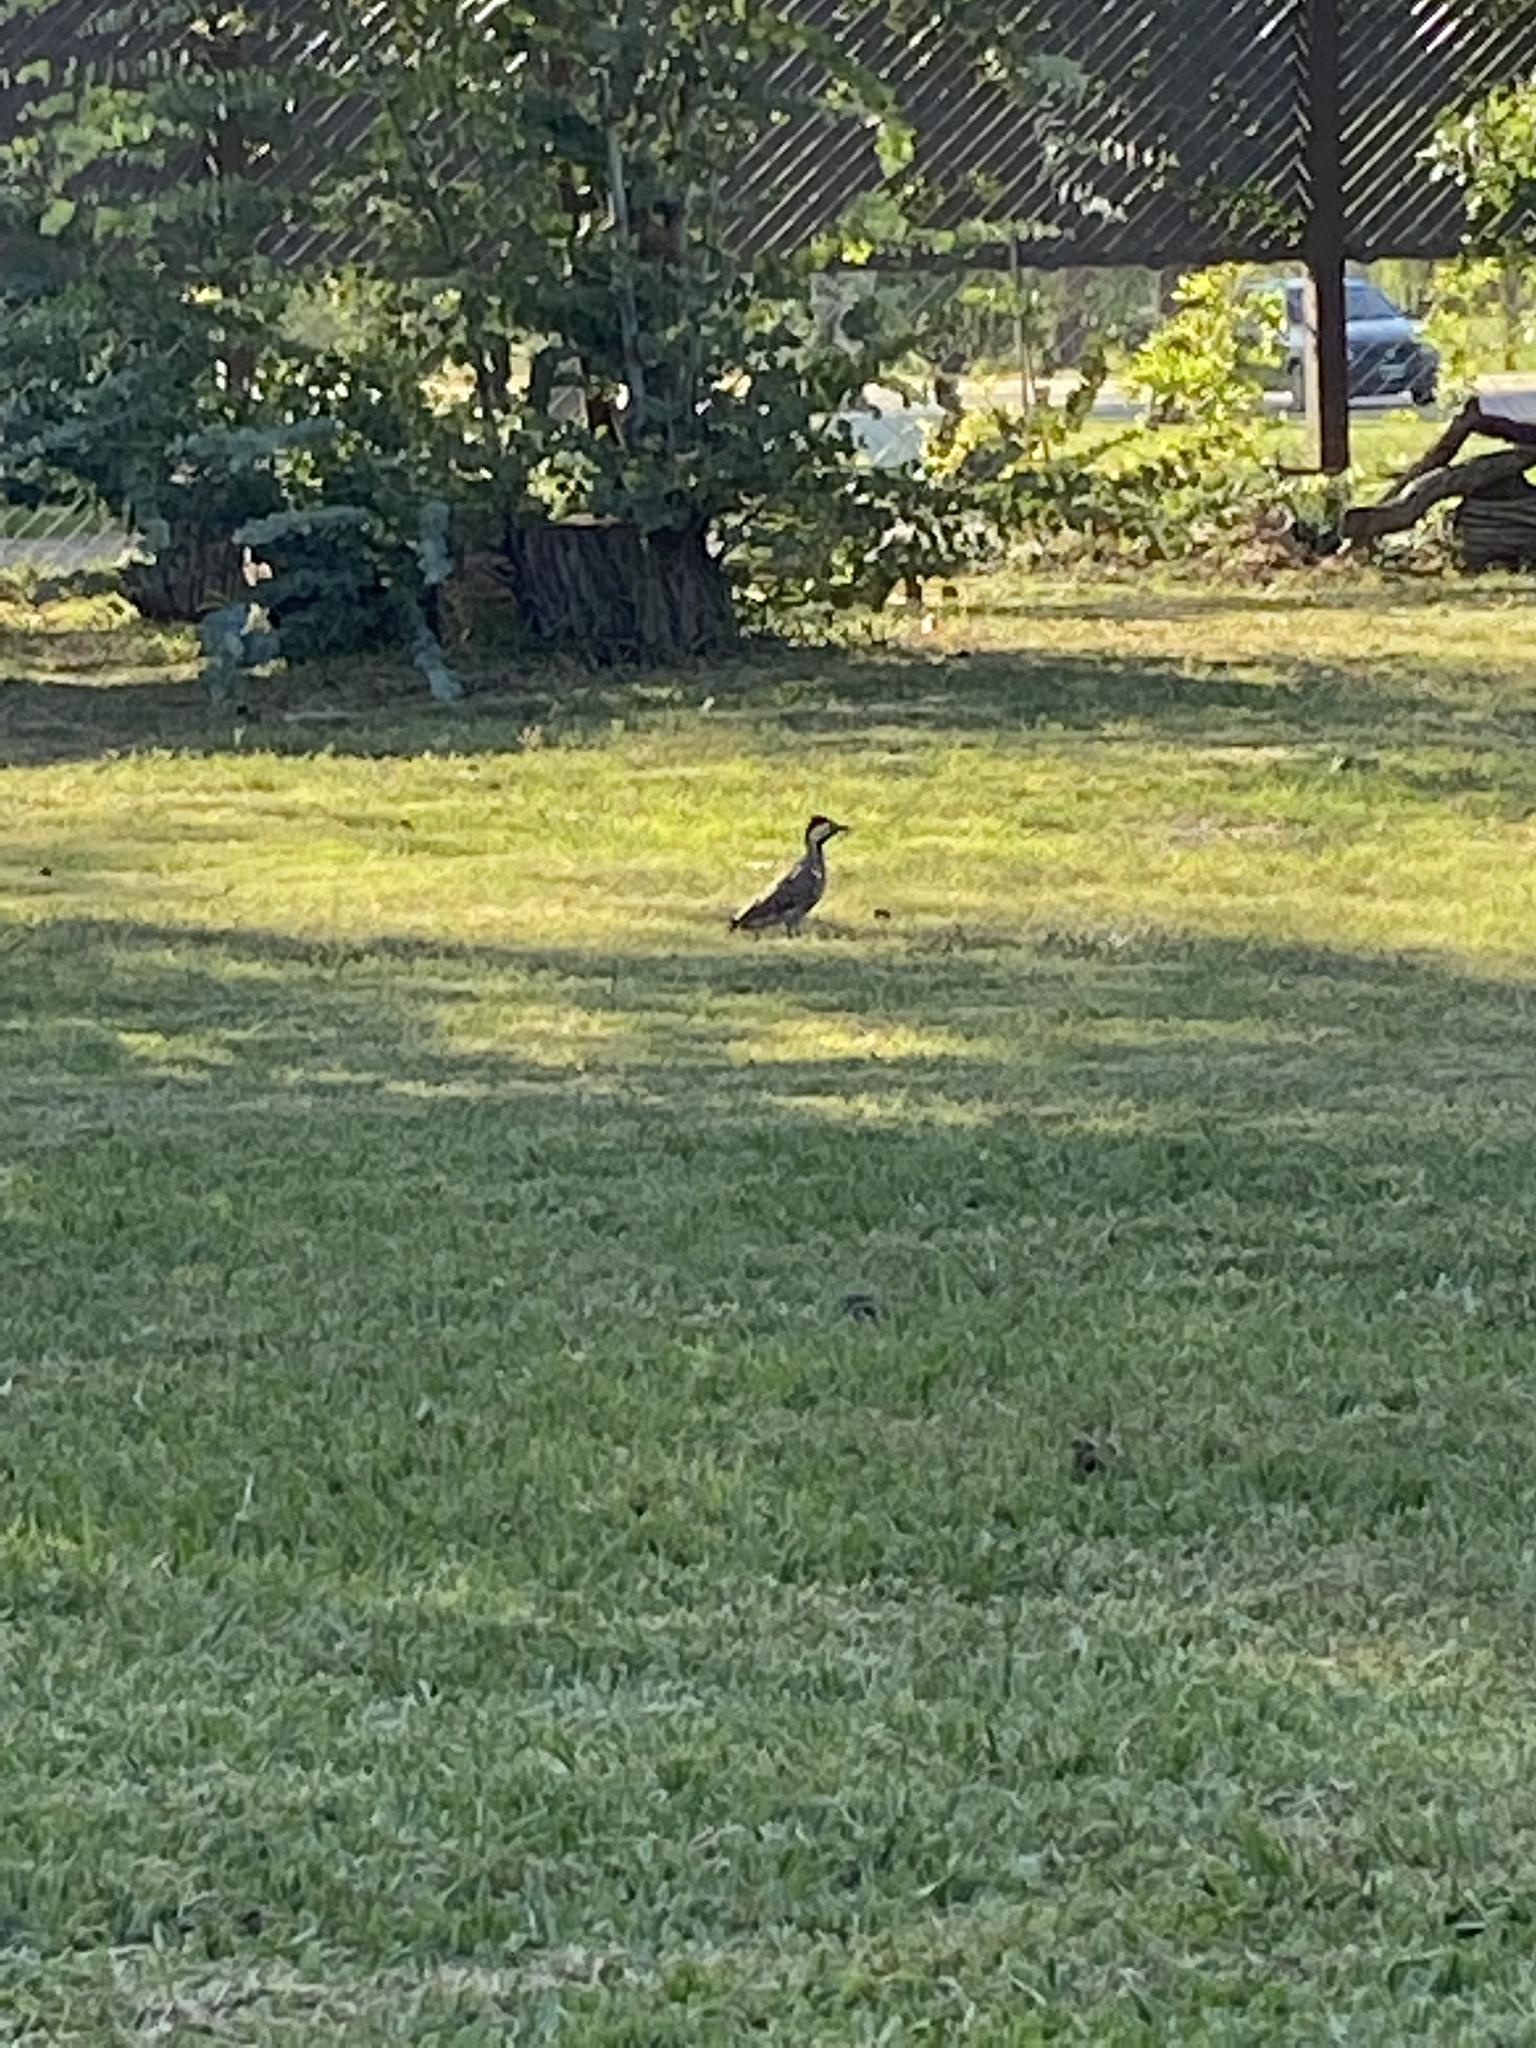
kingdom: Animalia
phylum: Chordata
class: Aves
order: Piciformes
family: Picidae
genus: Colaptes
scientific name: Colaptes melanochloros
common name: Green-barred woodpecker
